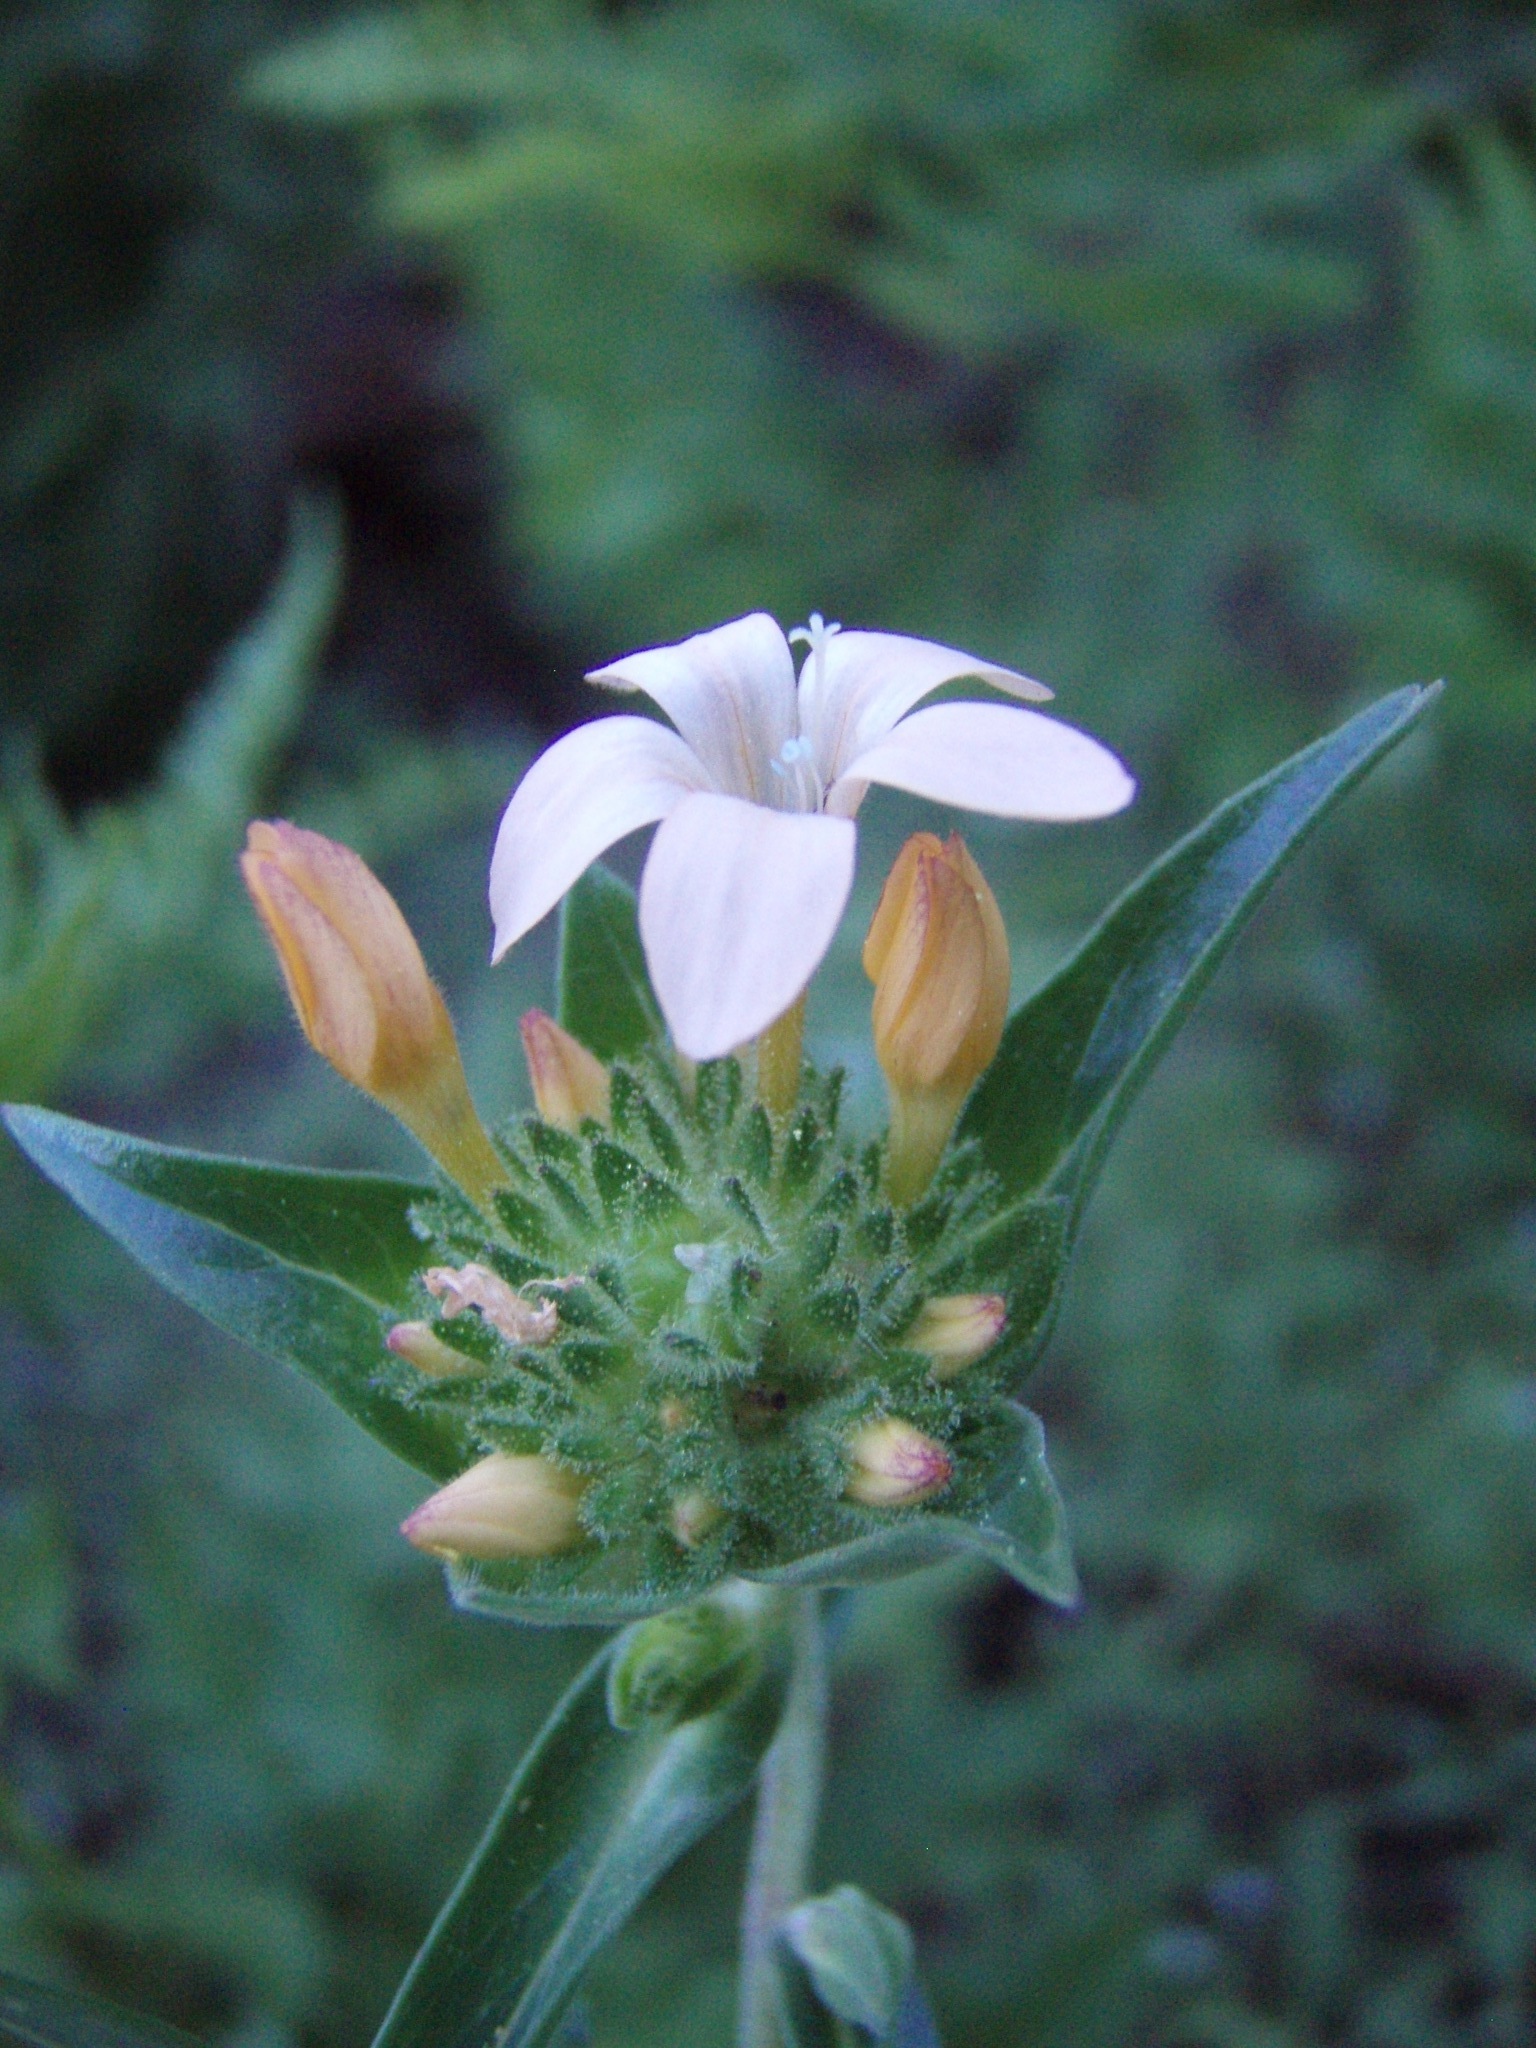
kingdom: Plantae
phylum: Tracheophyta
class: Magnoliopsida
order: Ericales
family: Polemoniaceae
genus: Collomia
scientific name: Collomia grandiflora
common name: California strawflower
